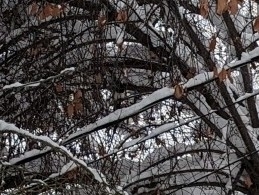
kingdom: Animalia
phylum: Chordata
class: Aves
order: Passeriformes
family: Corvidae
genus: Pica
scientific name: Pica hudsonia
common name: Black-billed magpie
